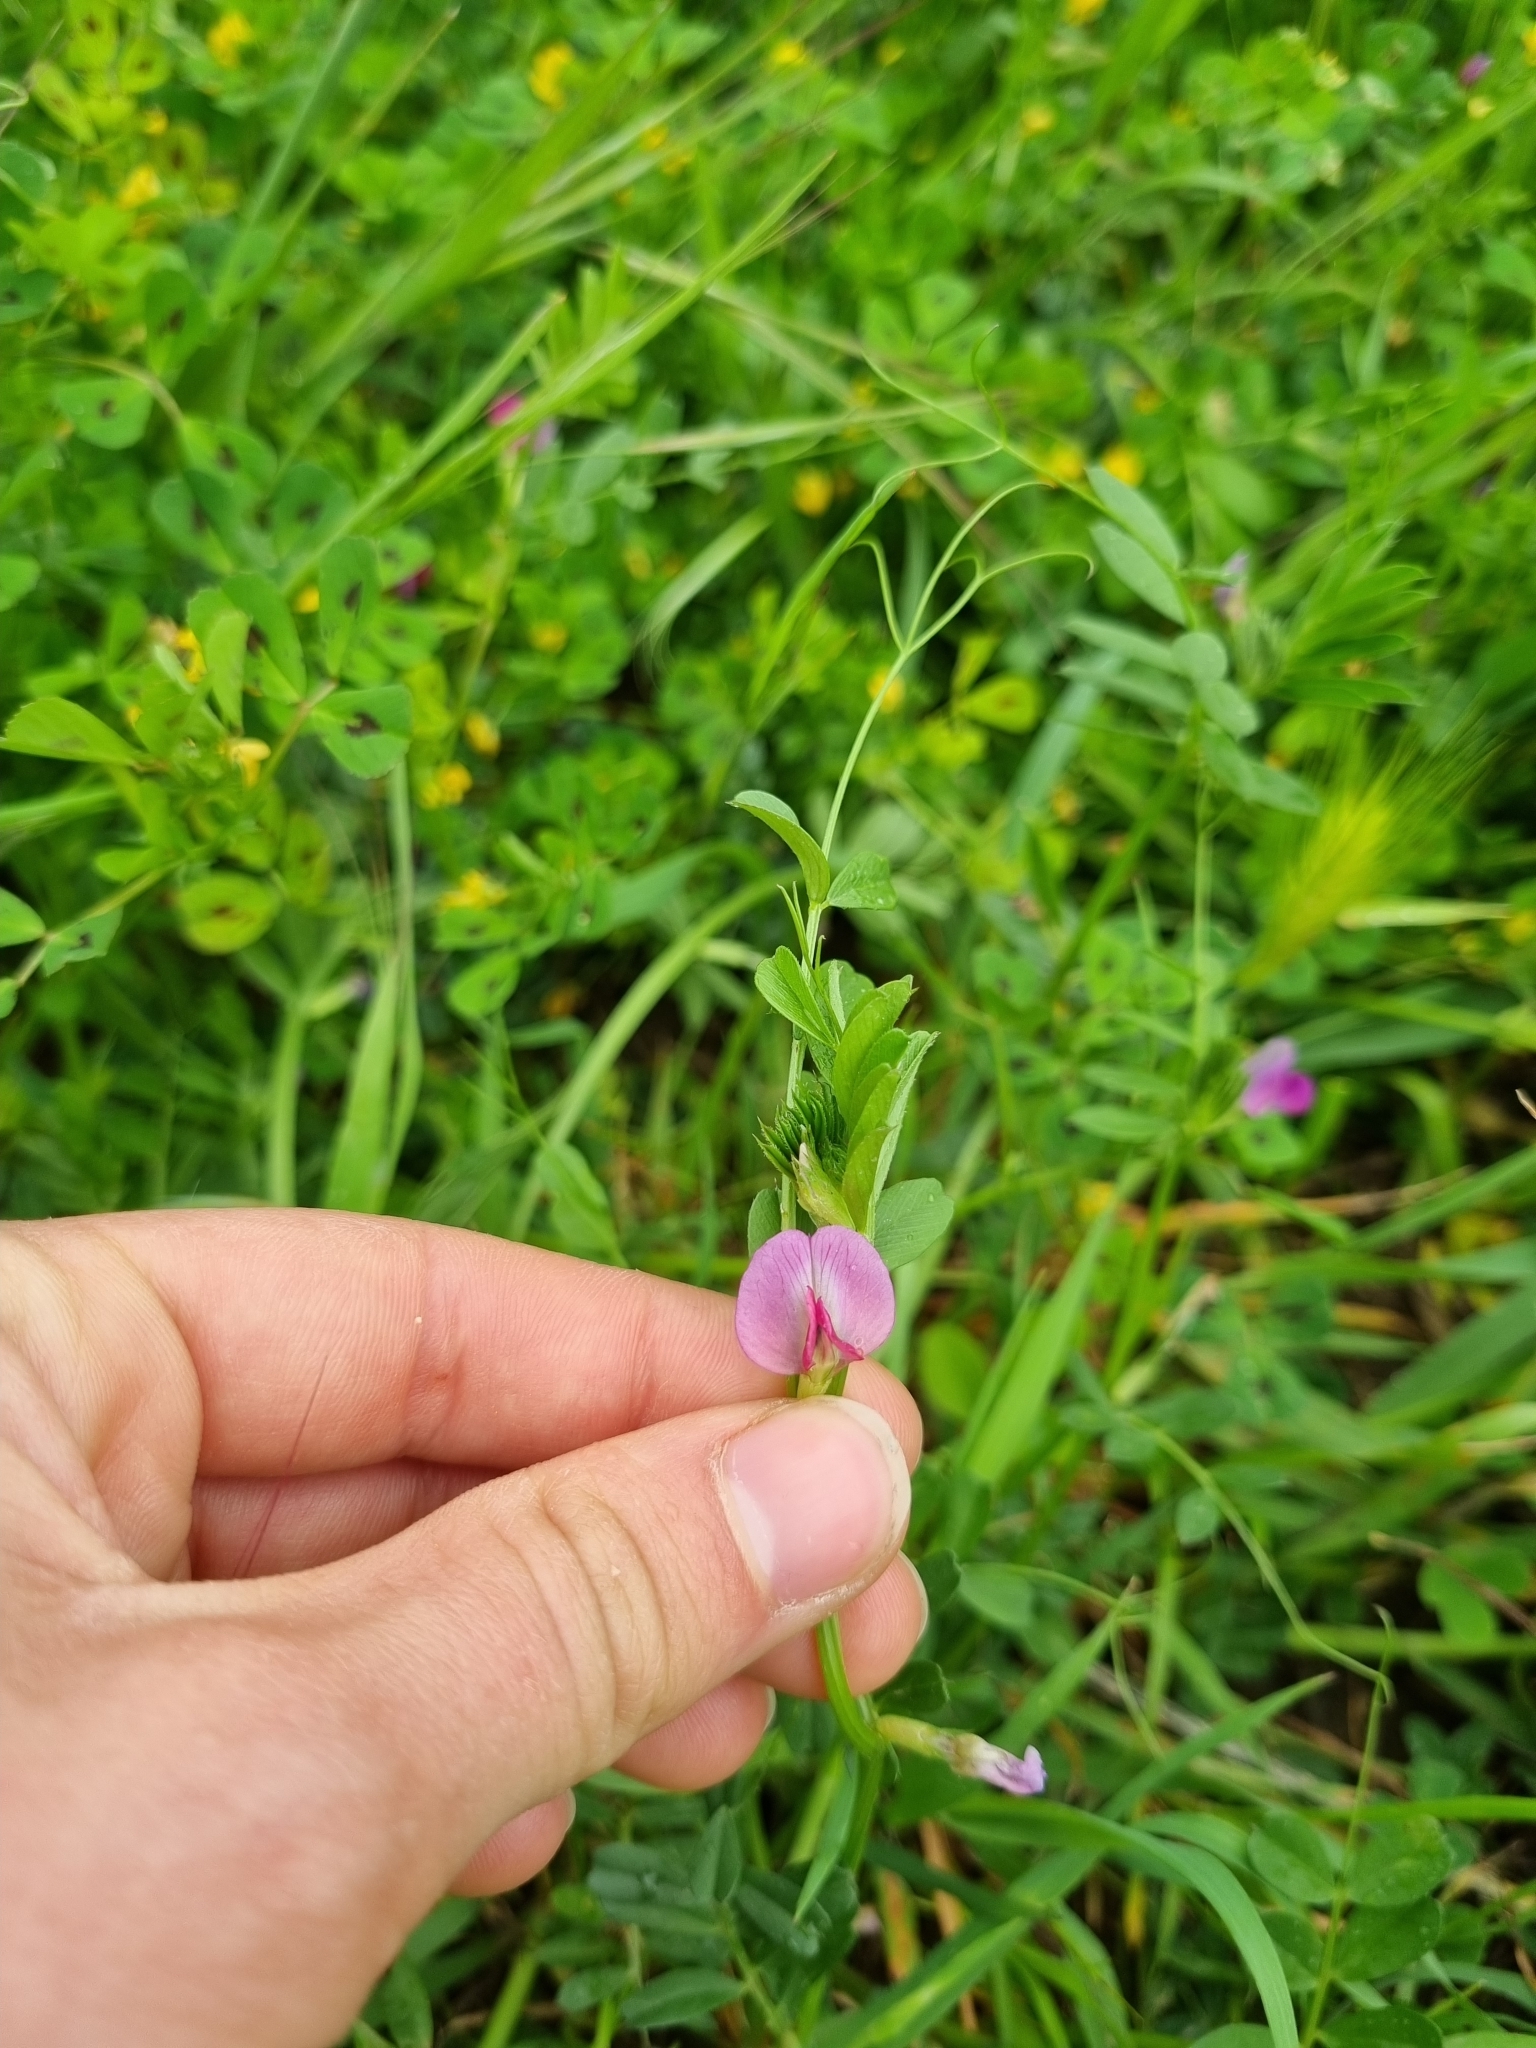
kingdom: Plantae
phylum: Tracheophyta
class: Magnoliopsida
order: Fabales
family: Fabaceae
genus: Vicia
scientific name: Vicia sativa
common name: Garden vetch
